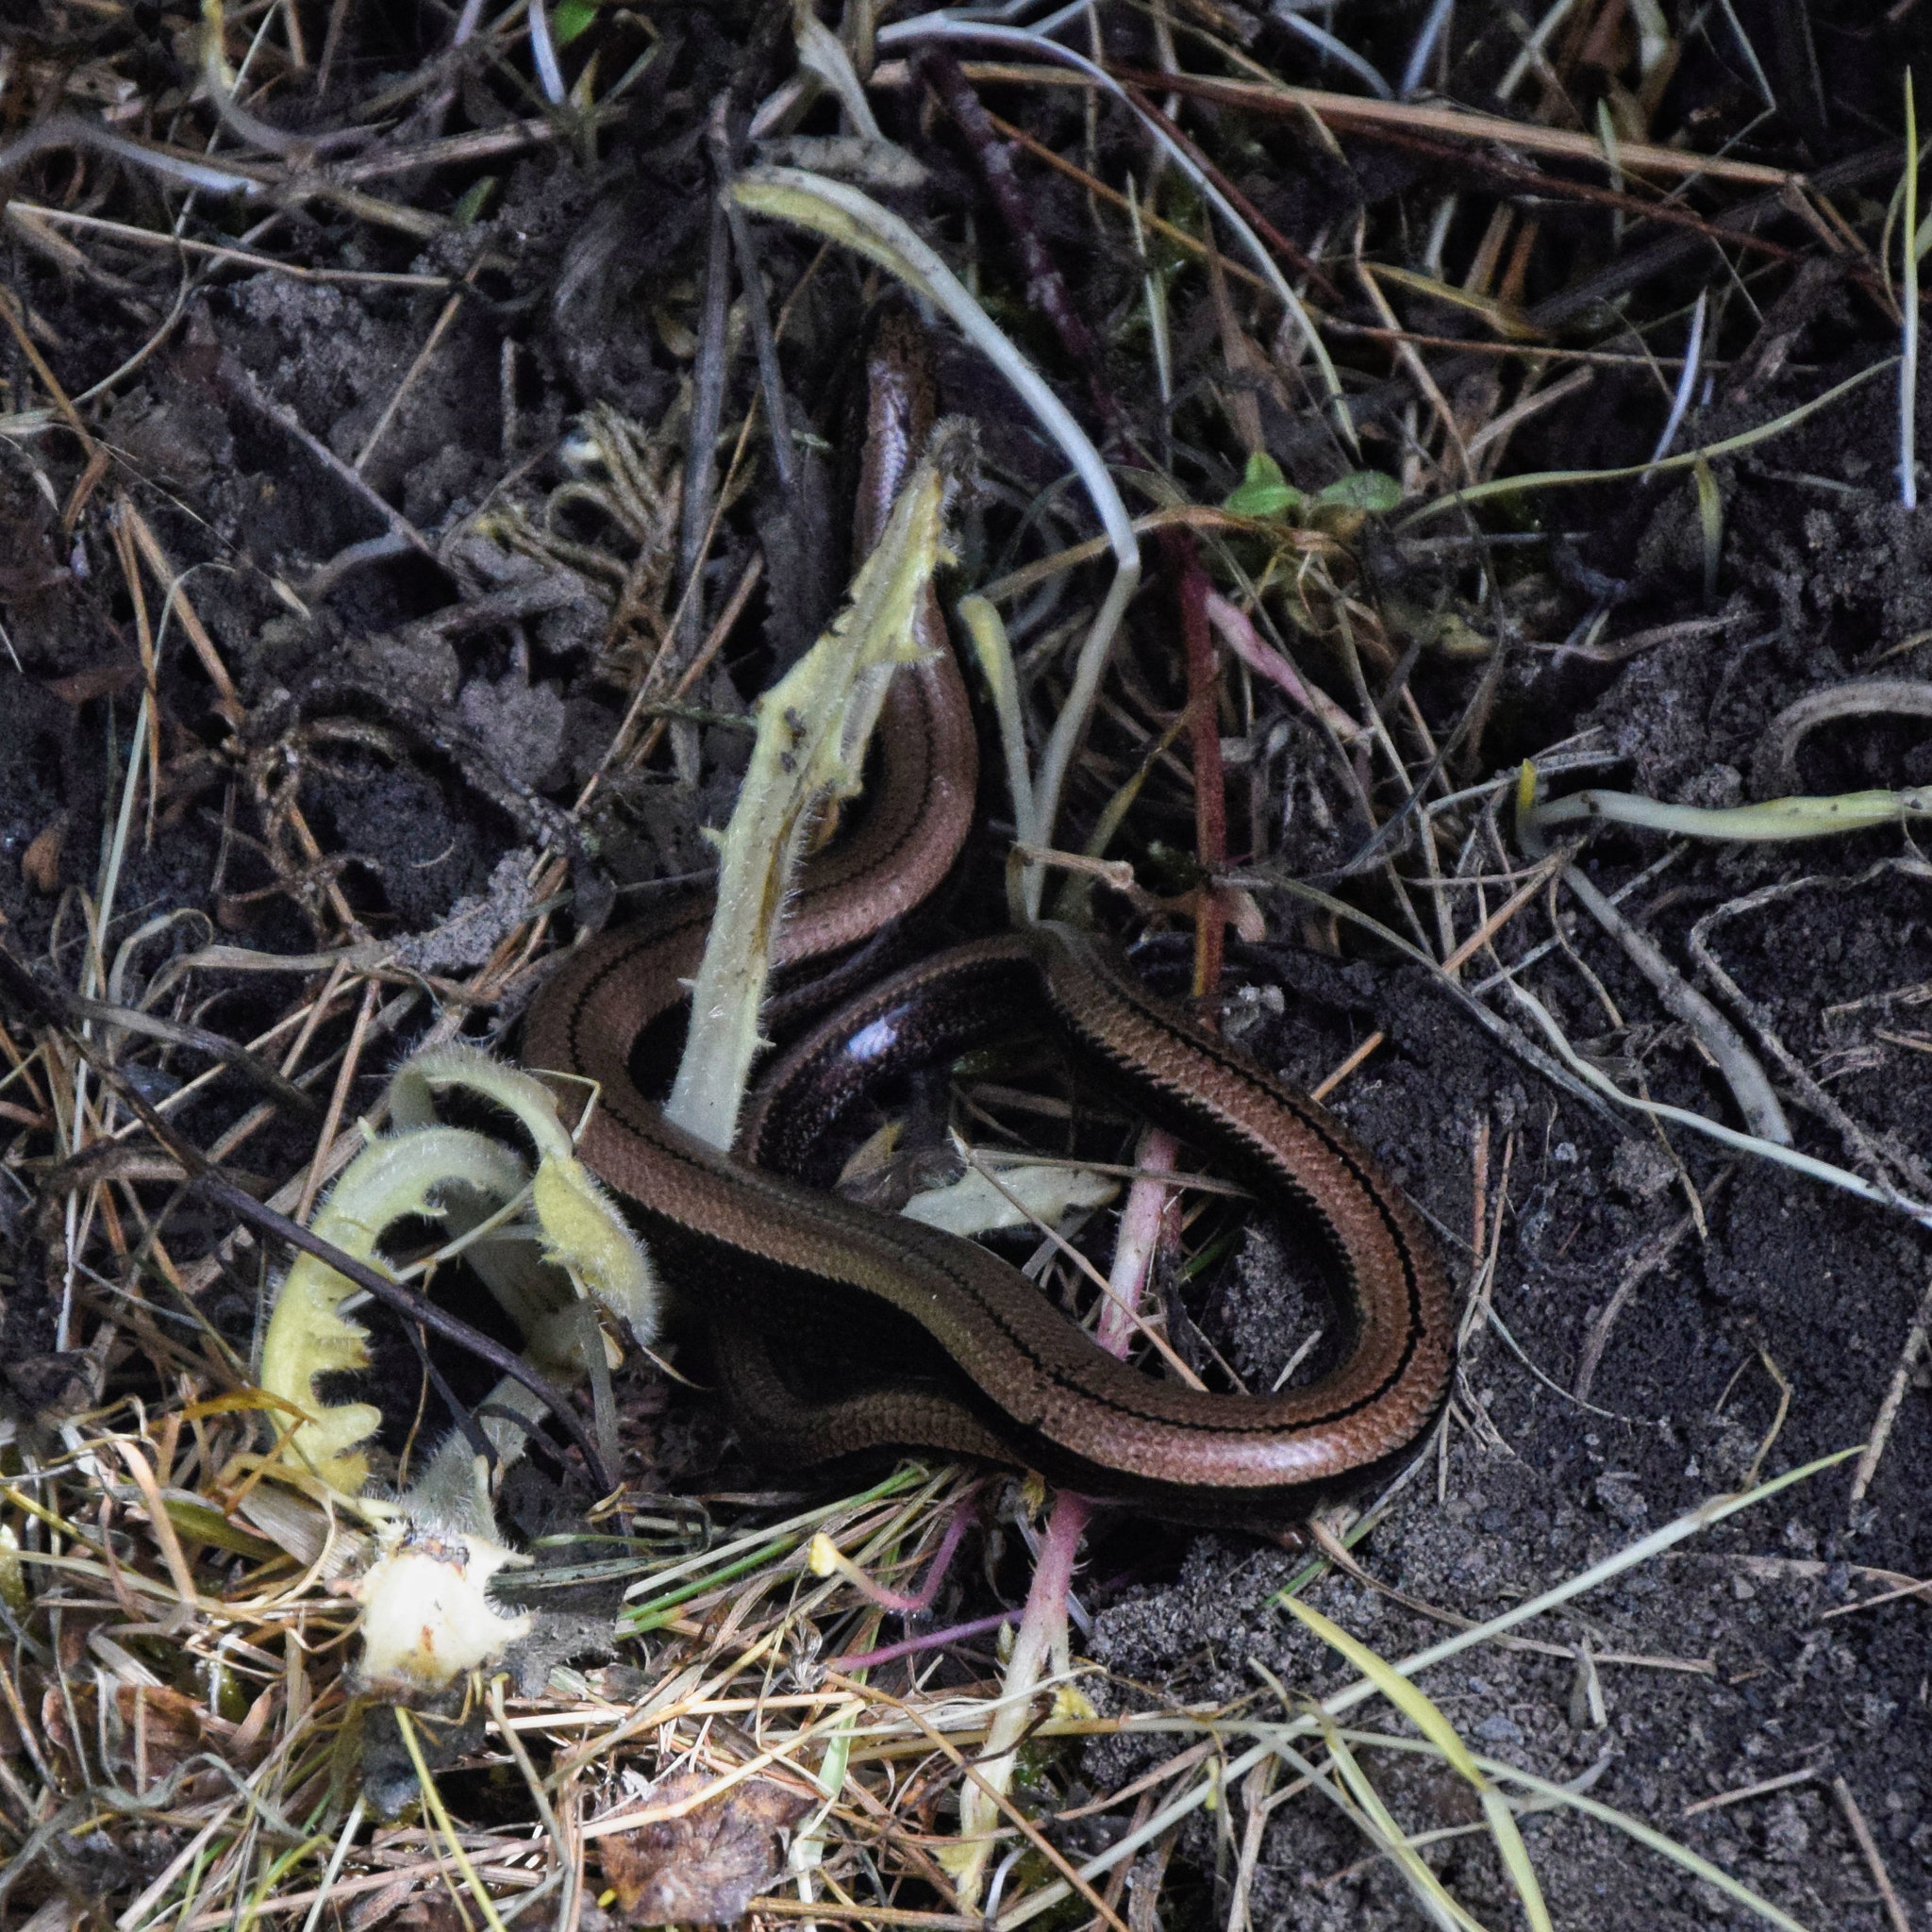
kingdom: Animalia
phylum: Chordata
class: Squamata
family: Anguidae
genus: Anguis
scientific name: Anguis fragilis
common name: Slow worm
